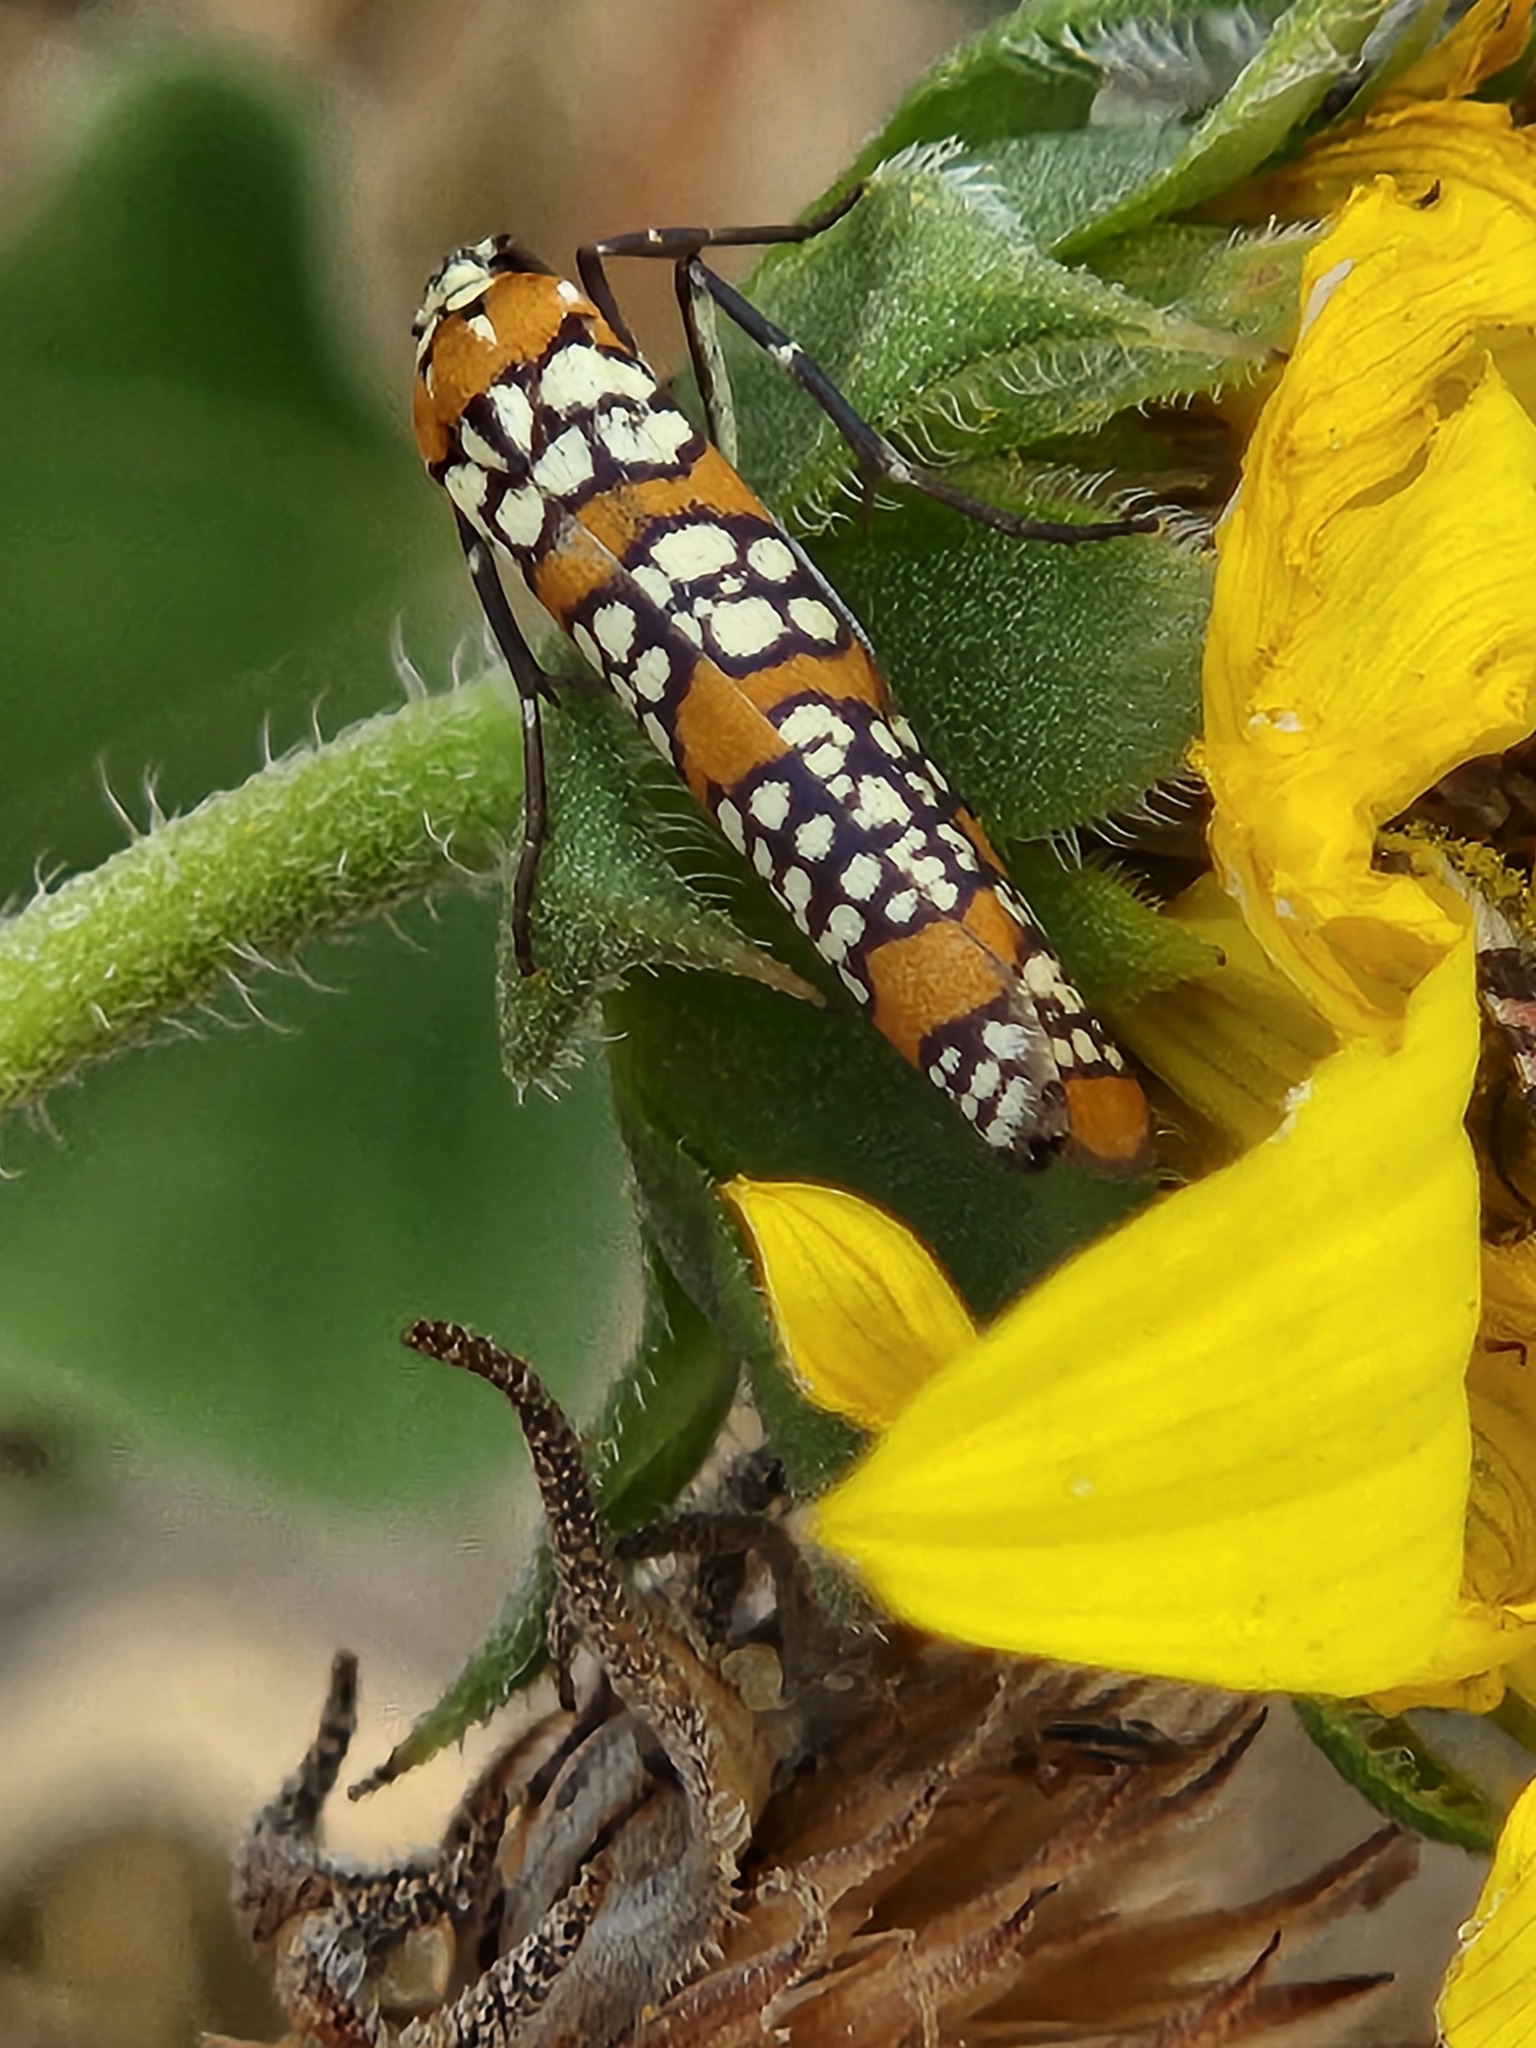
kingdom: Animalia
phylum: Arthropoda
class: Insecta
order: Lepidoptera
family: Attevidae
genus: Atteva
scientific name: Atteva punctella
